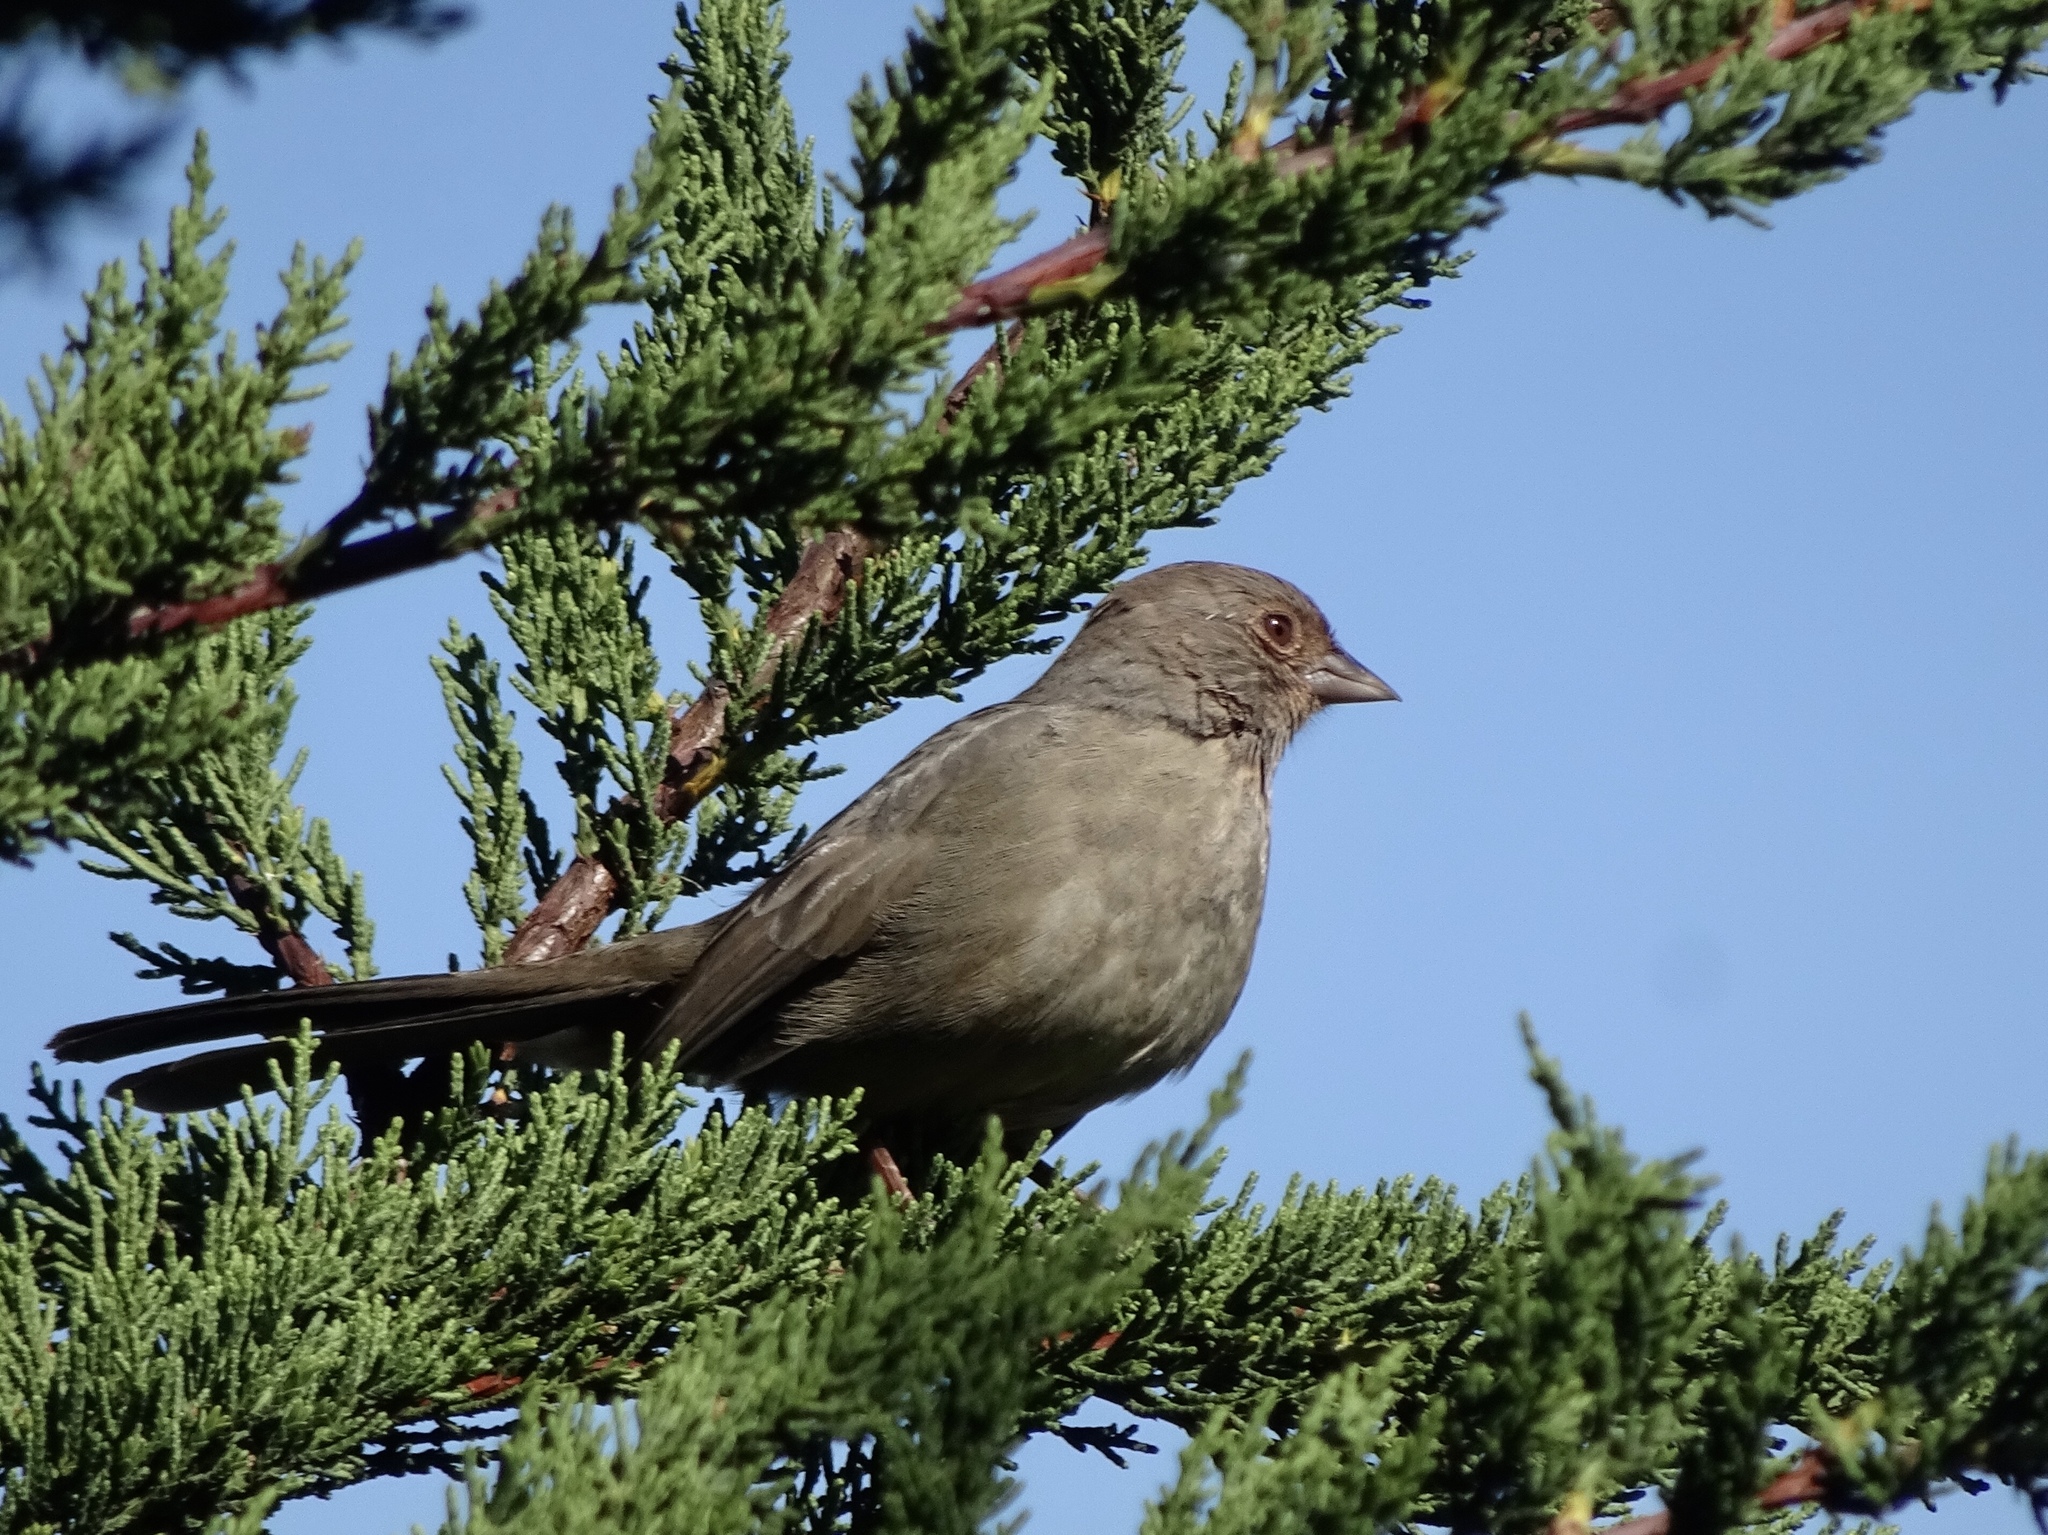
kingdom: Animalia
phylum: Chordata
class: Aves
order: Passeriformes
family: Passerellidae
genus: Melozone
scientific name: Melozone crissalis
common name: California towhee
